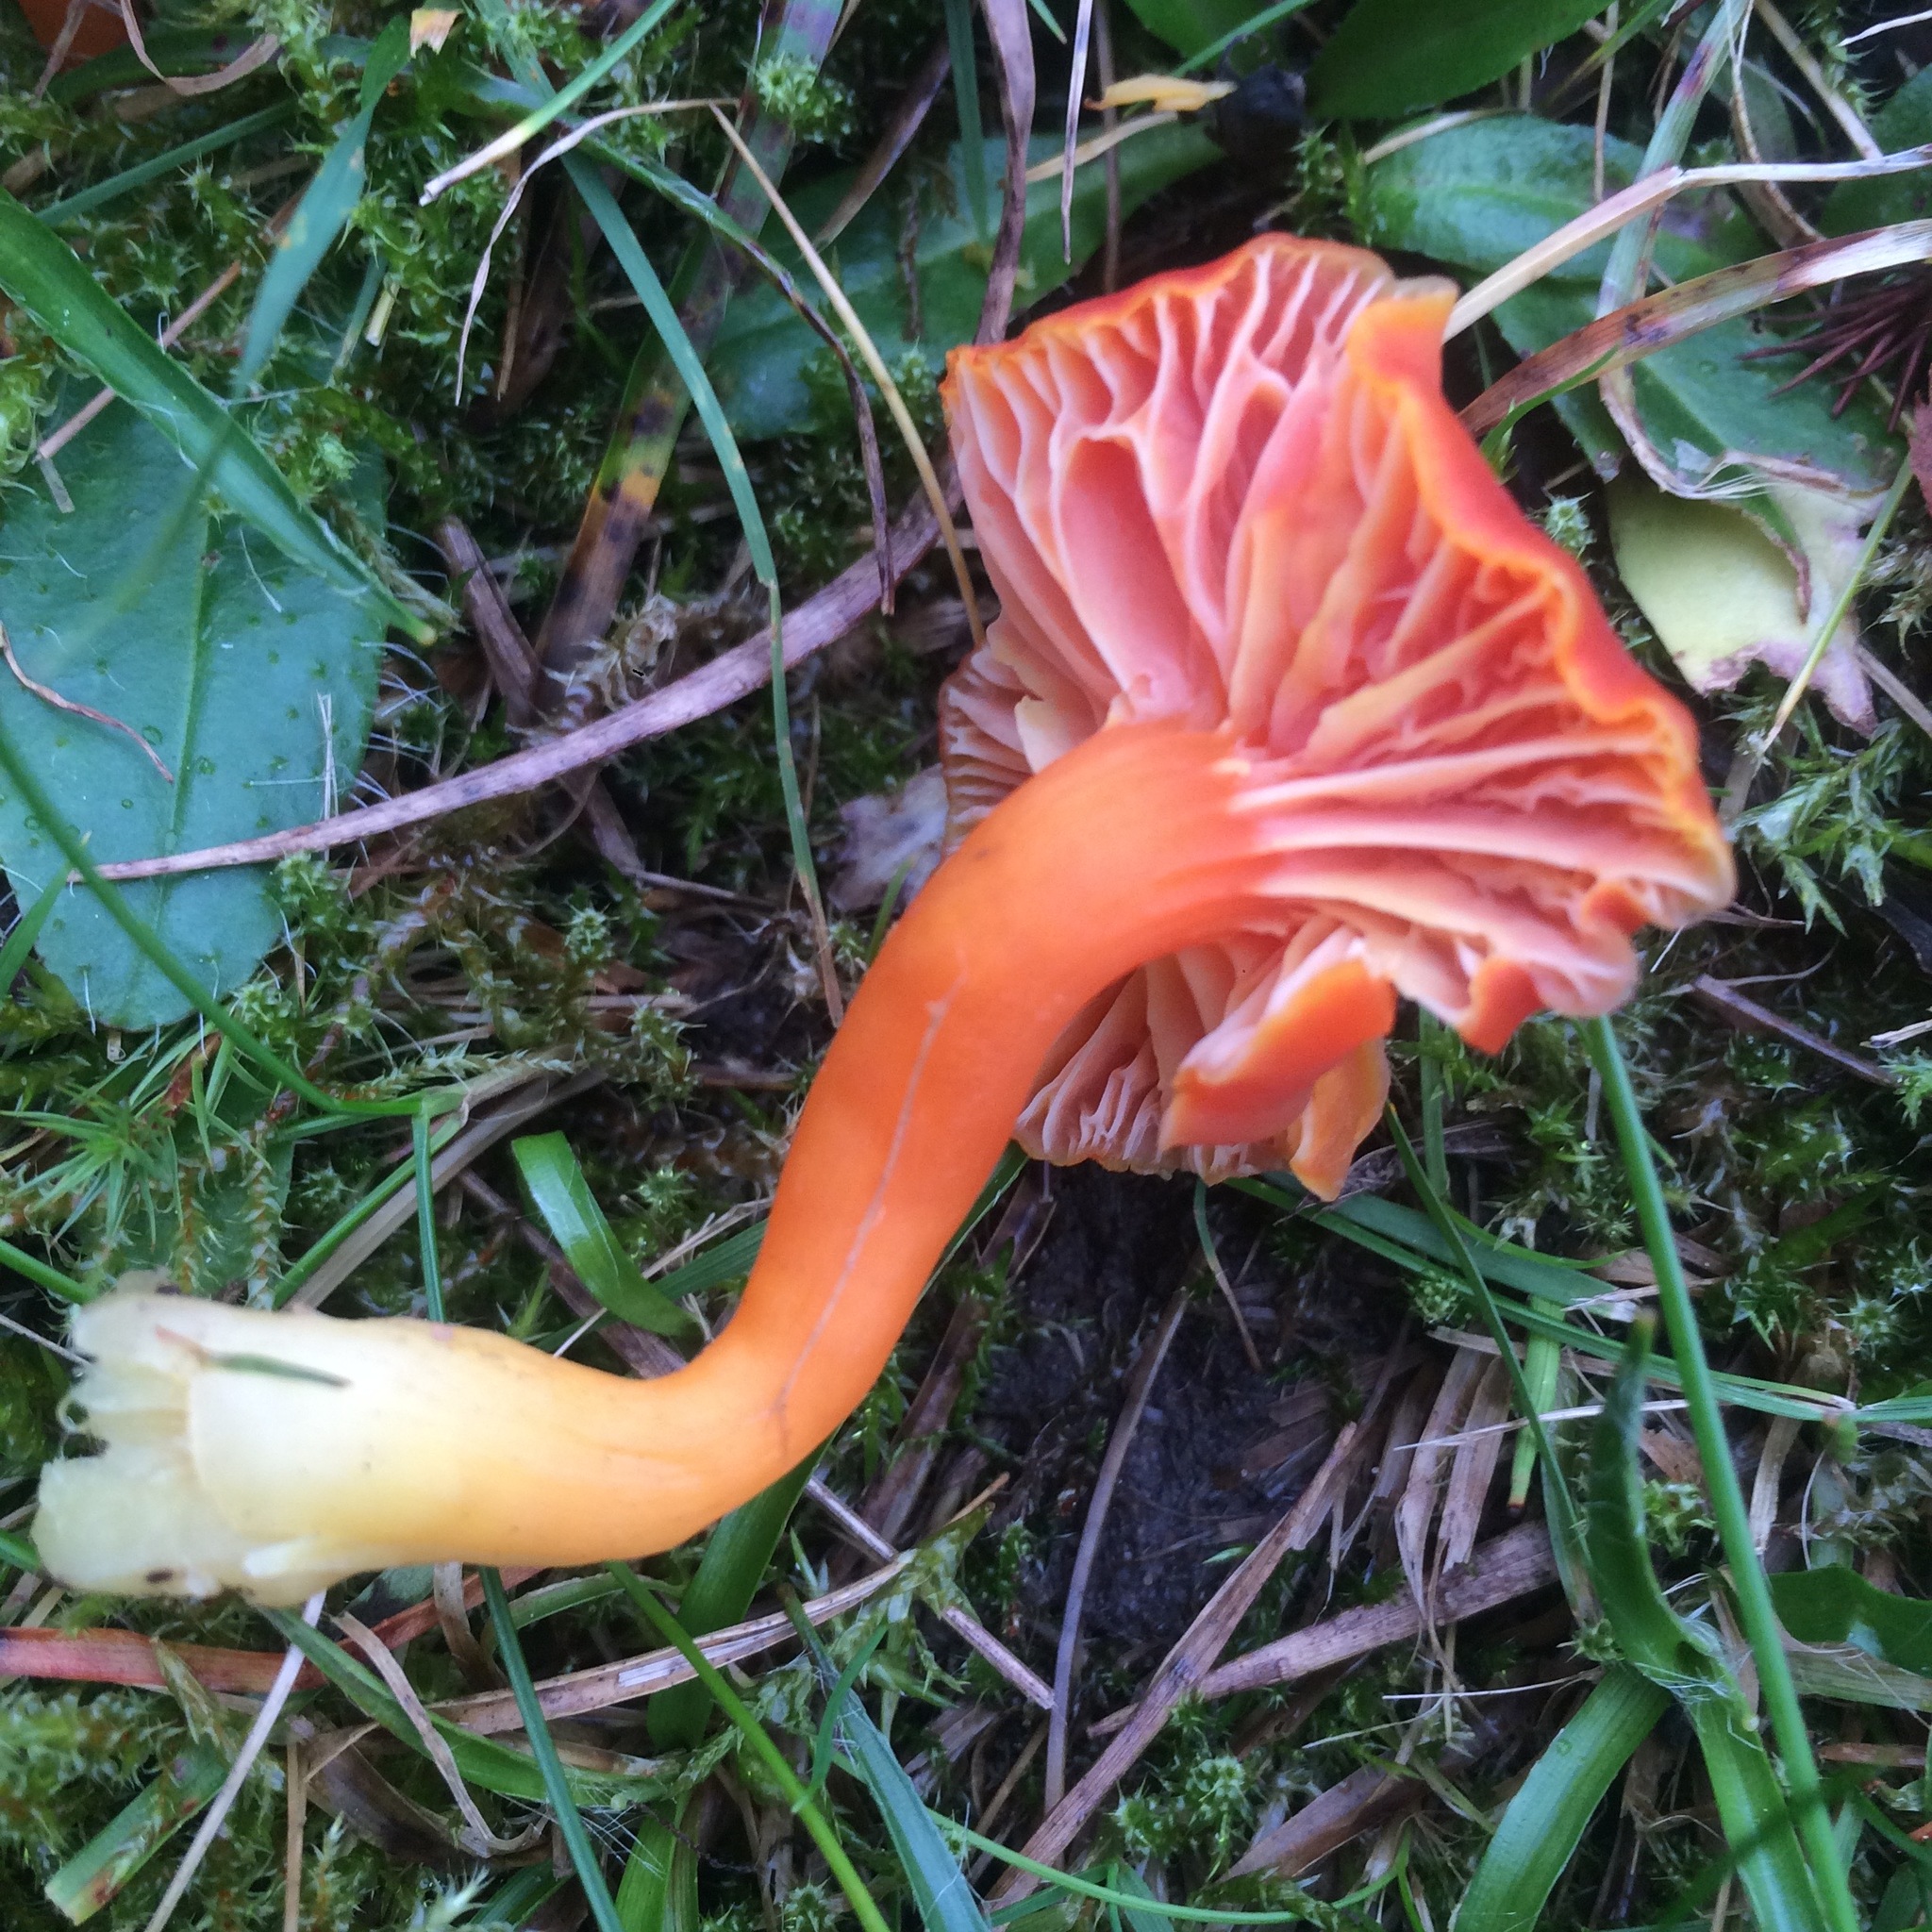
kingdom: Fungi
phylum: Basidiomycota
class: Agaricomycetes
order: Agaricales
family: Hygrophoraceae
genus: Hygrocybe
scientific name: Hygrocybe reidii
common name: Honey waxcap
